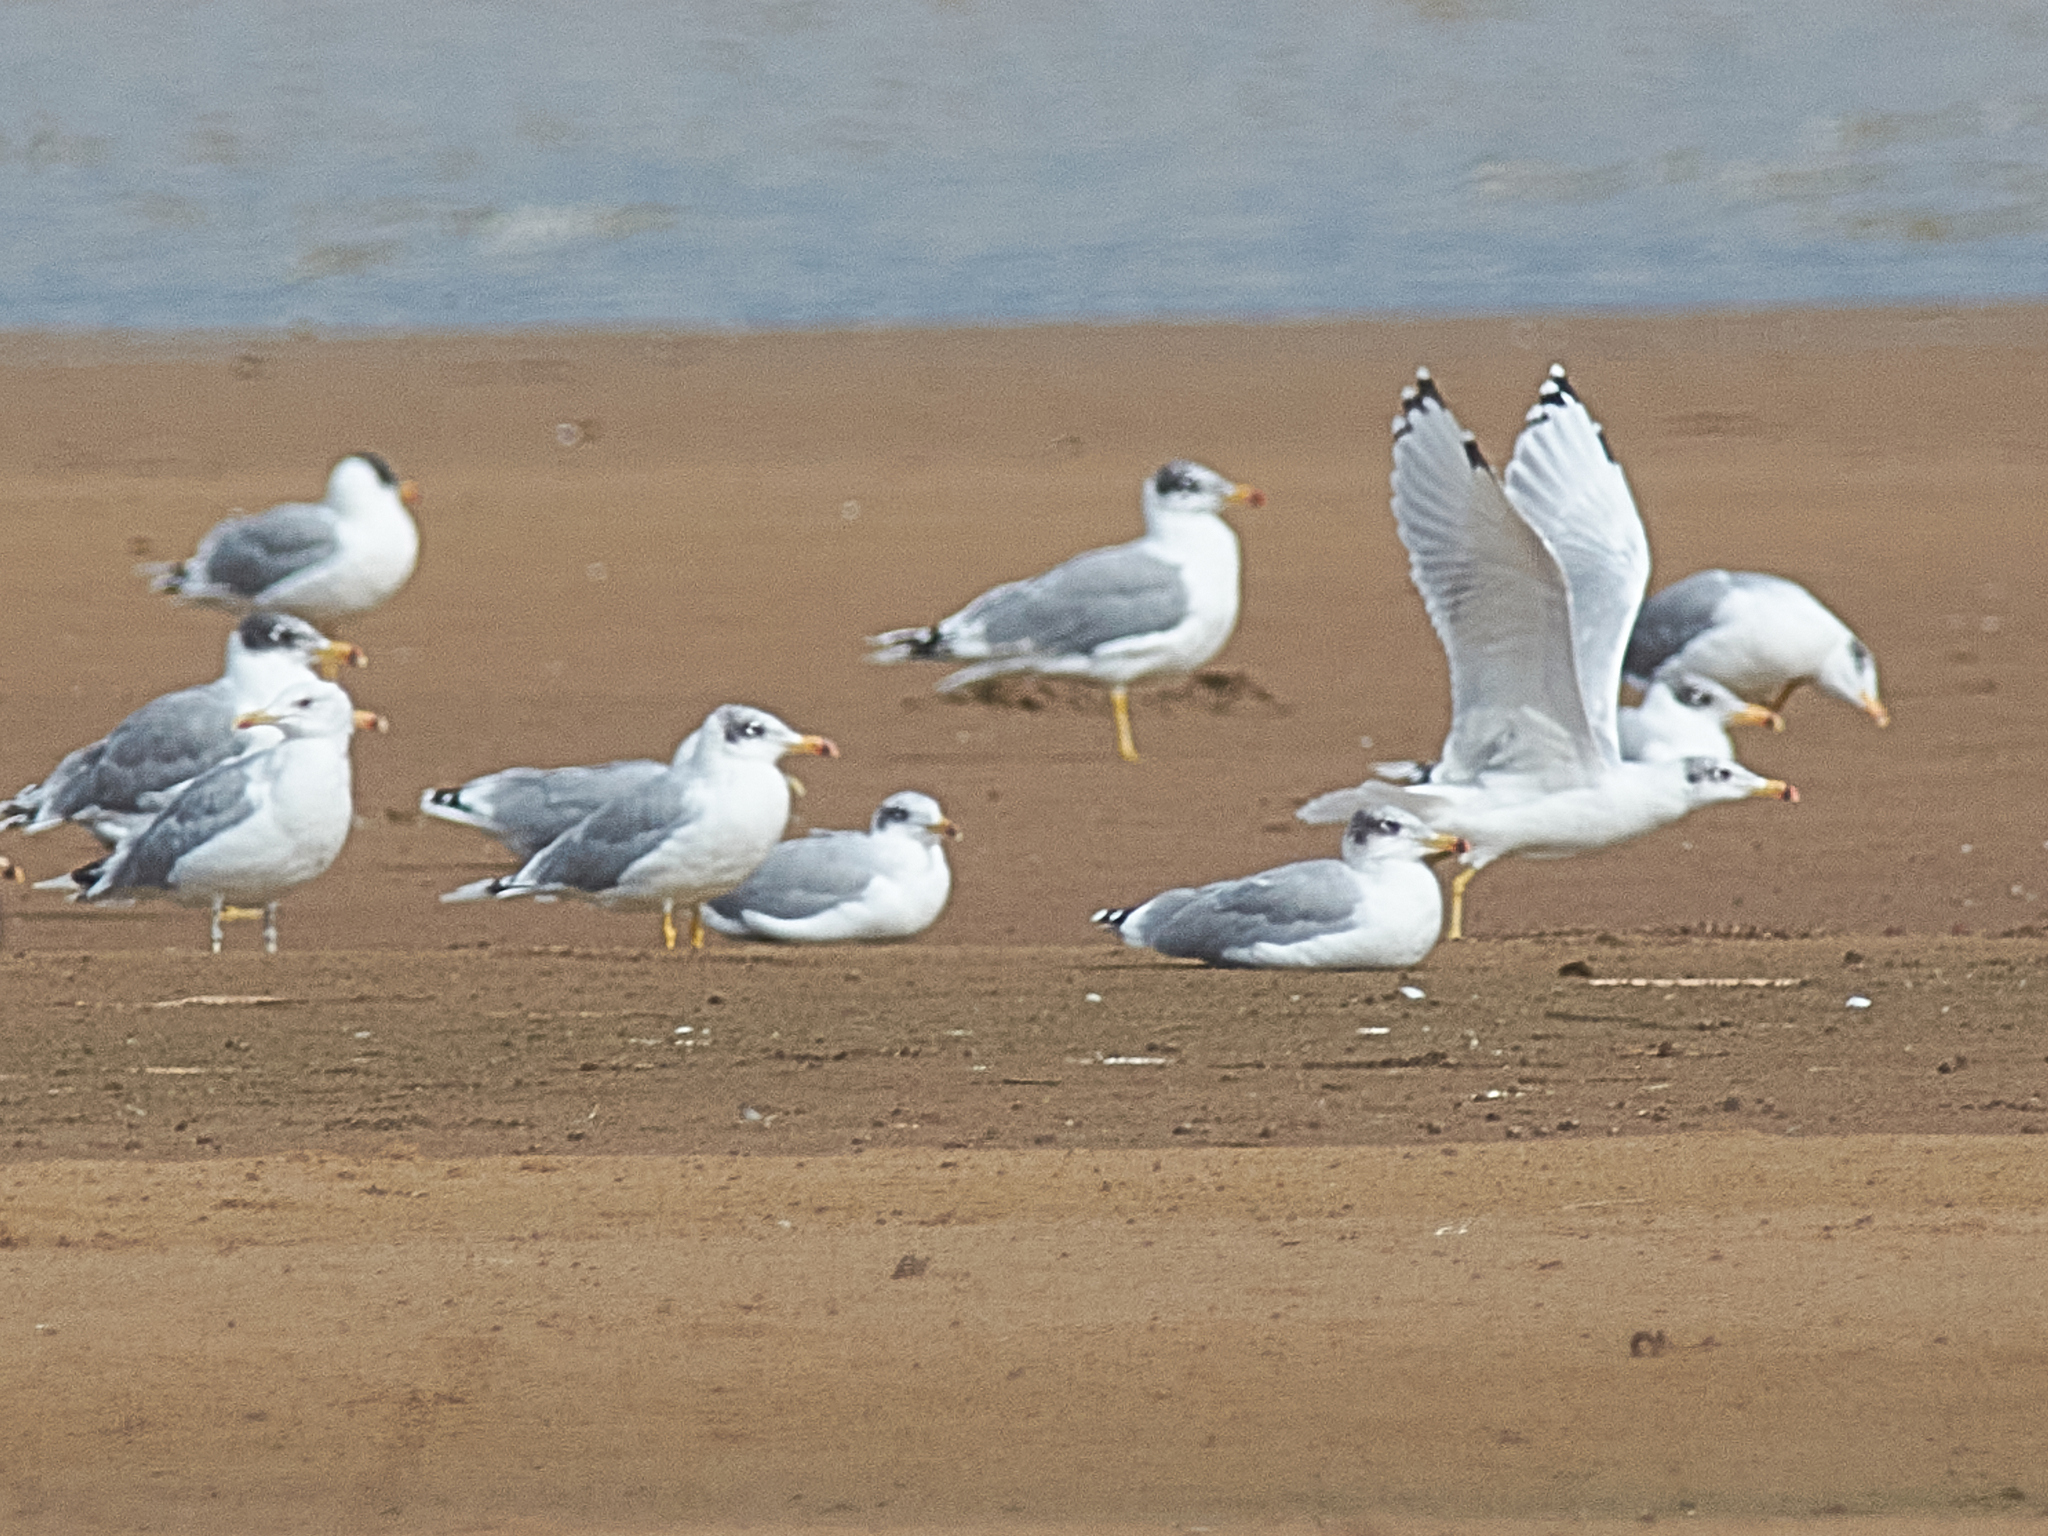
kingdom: Animalia
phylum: Chordata
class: Aves
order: Charadriiformes
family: Laridae
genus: Ichthyaetus
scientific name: Ichthyaetus ichthyaetus
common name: Pallas's gull
